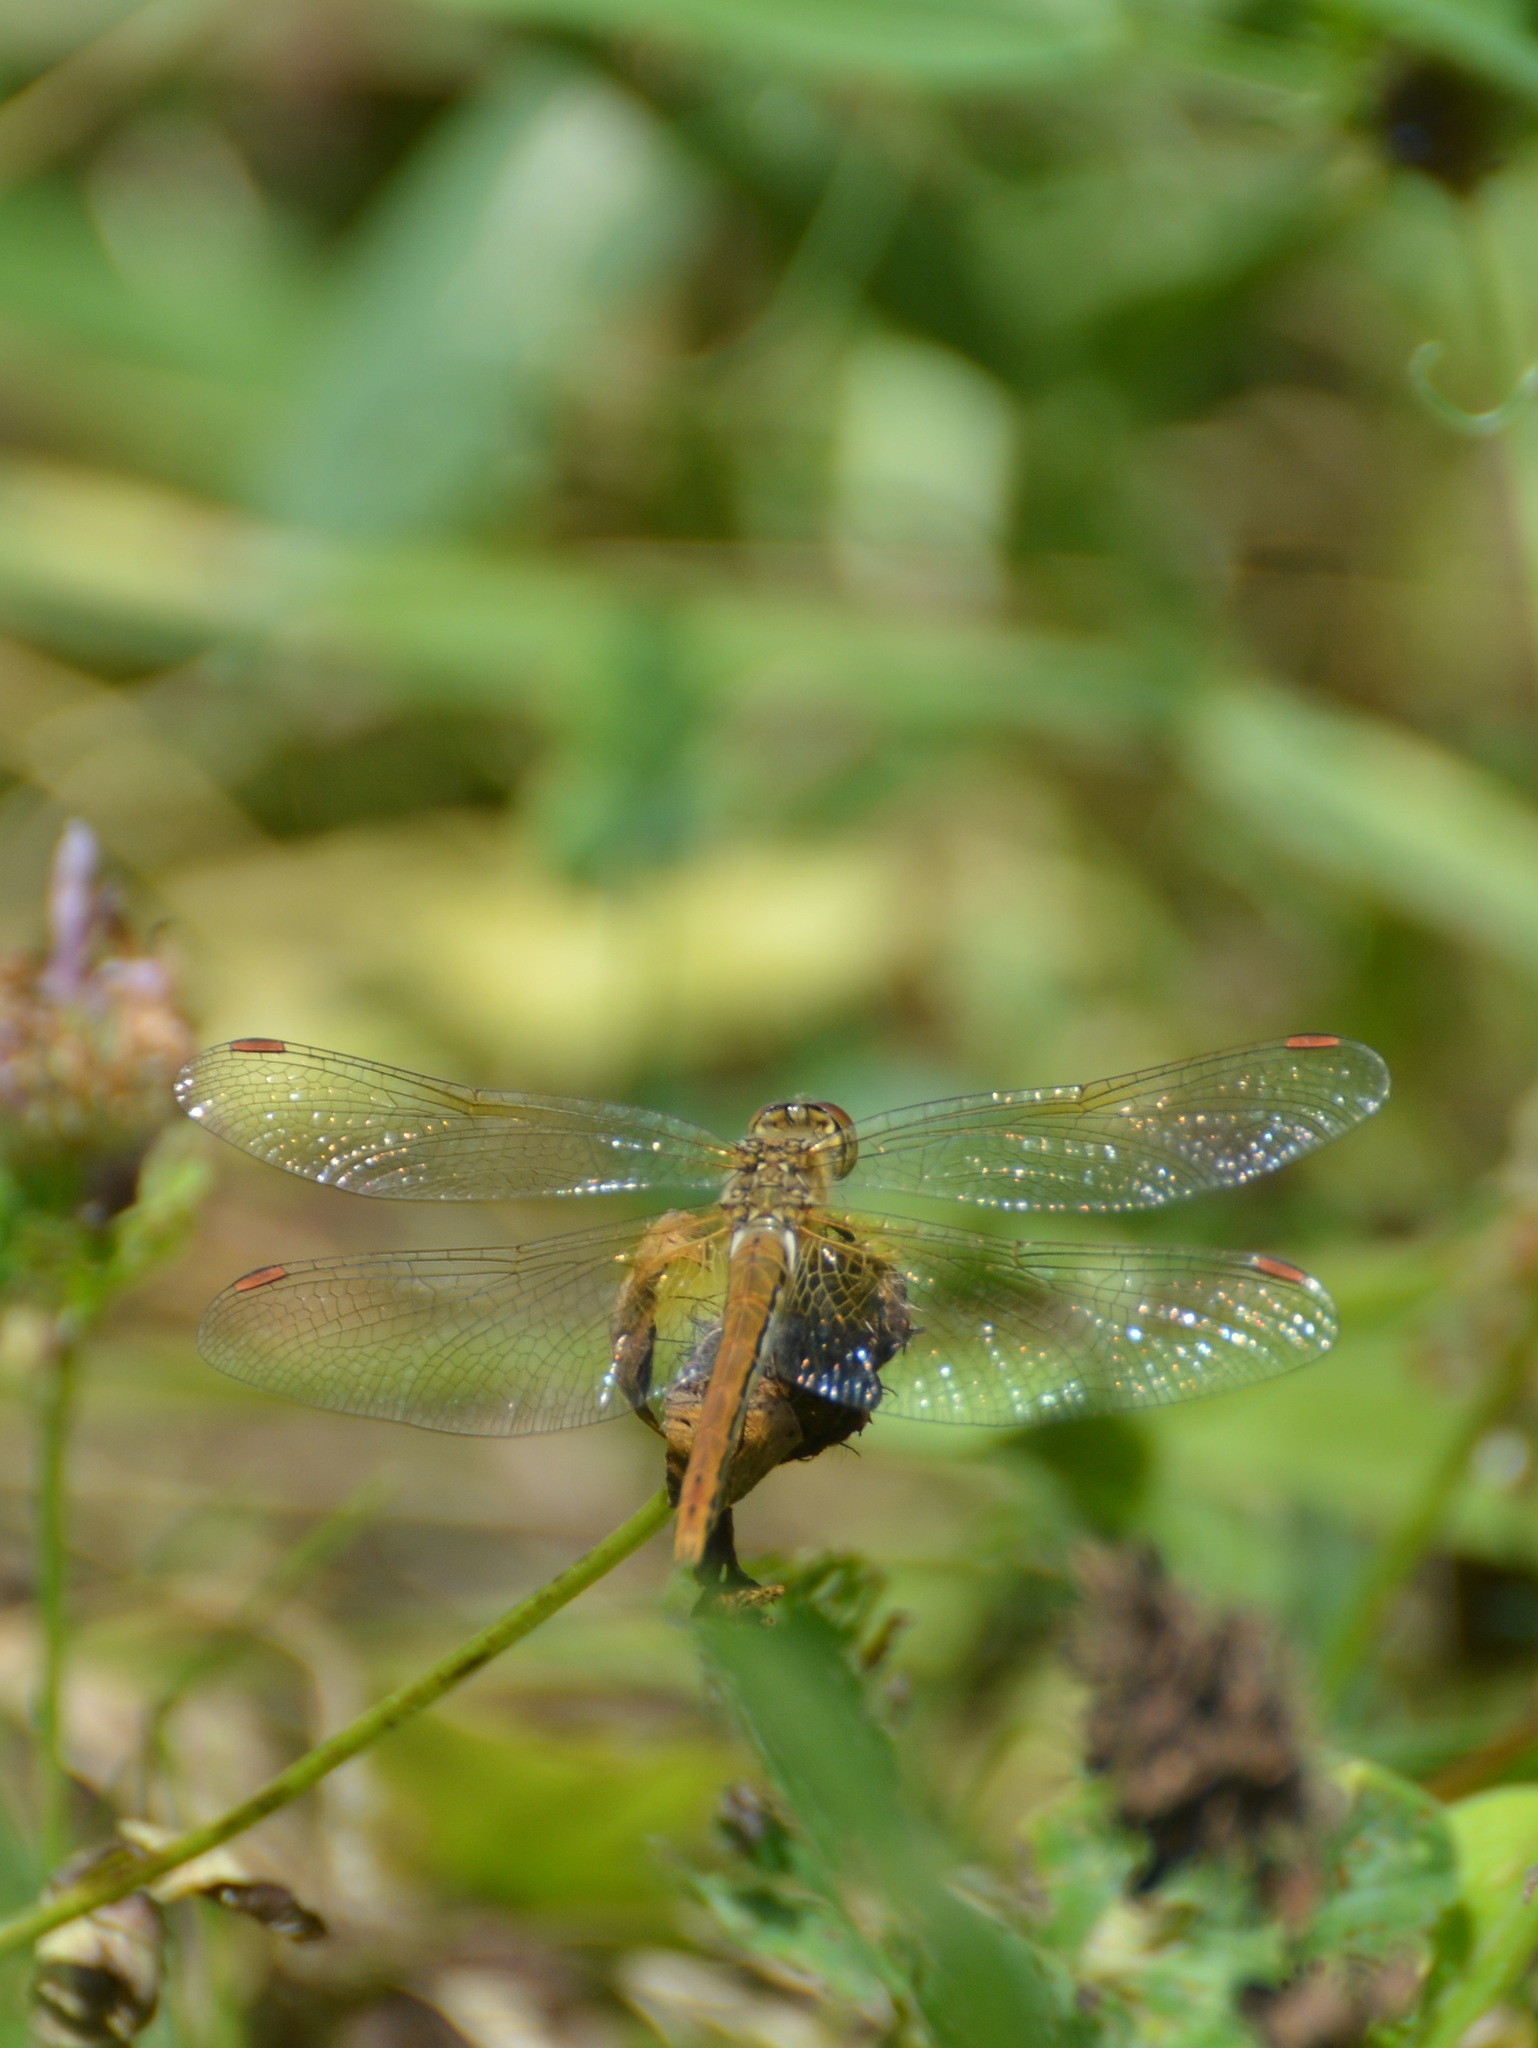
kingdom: Animalia
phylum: Arthropoda
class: Insecta
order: Odonata
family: Libellulidae
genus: Sympetrum
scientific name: Sympetrum flaveolum
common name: Yellow-winged darter
